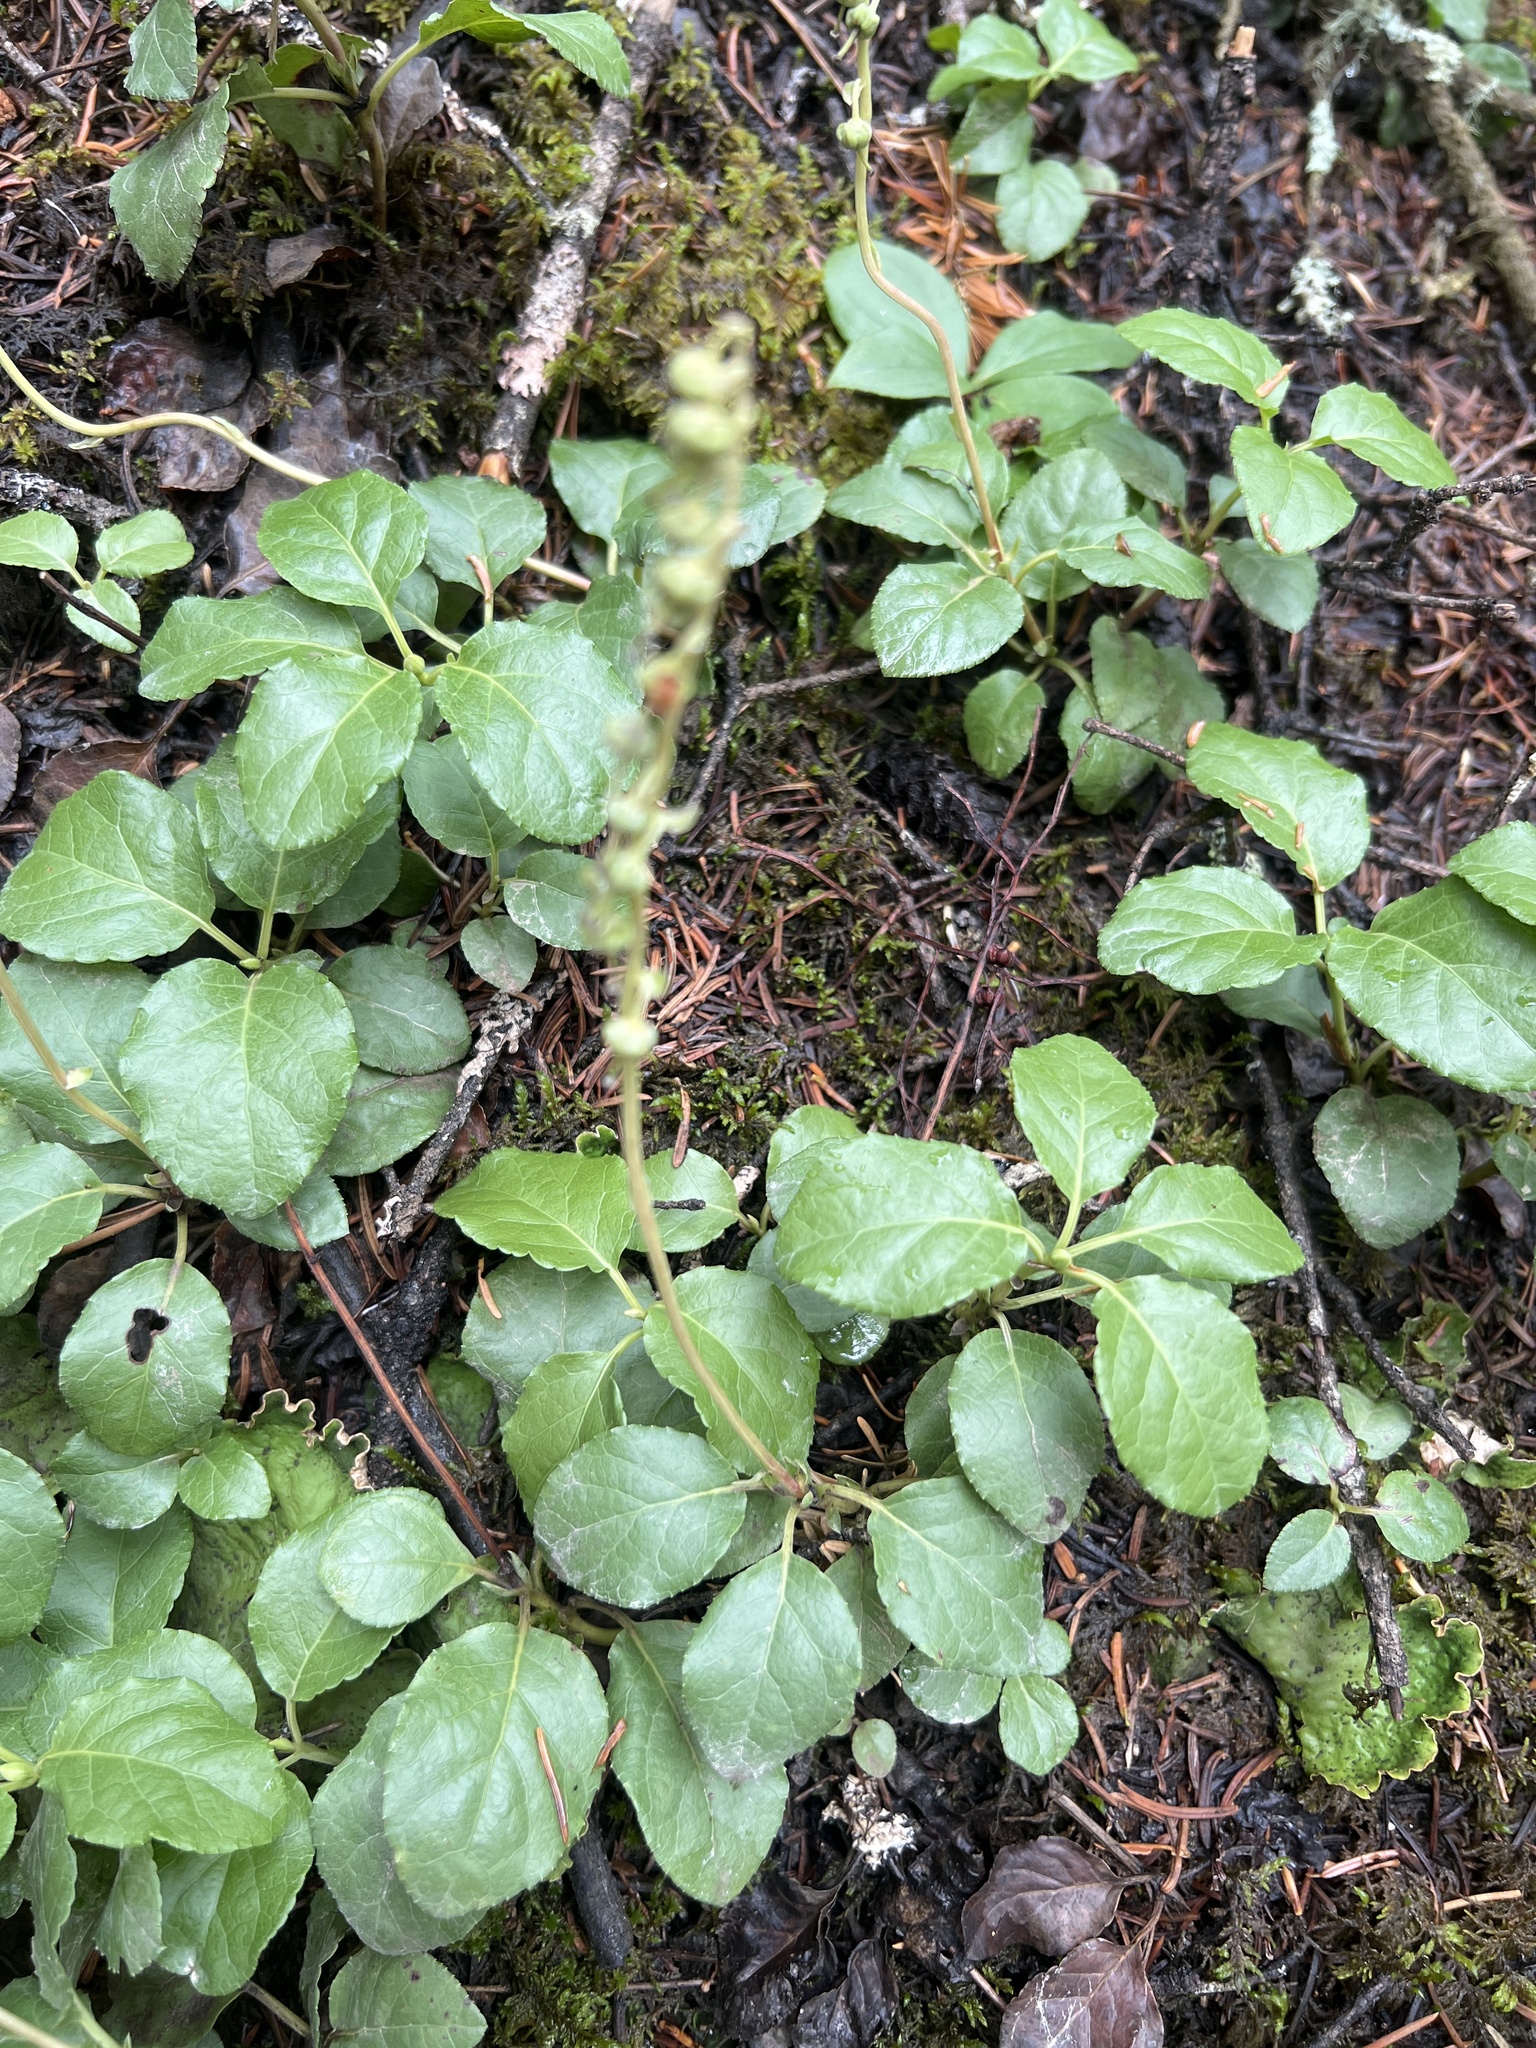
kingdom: Plantae
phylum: Tracheophyta
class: Magnoliopsida
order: Ericales
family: Ericaceae
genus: Orthilia
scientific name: Orthilia secunda
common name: One-sided orthilia
